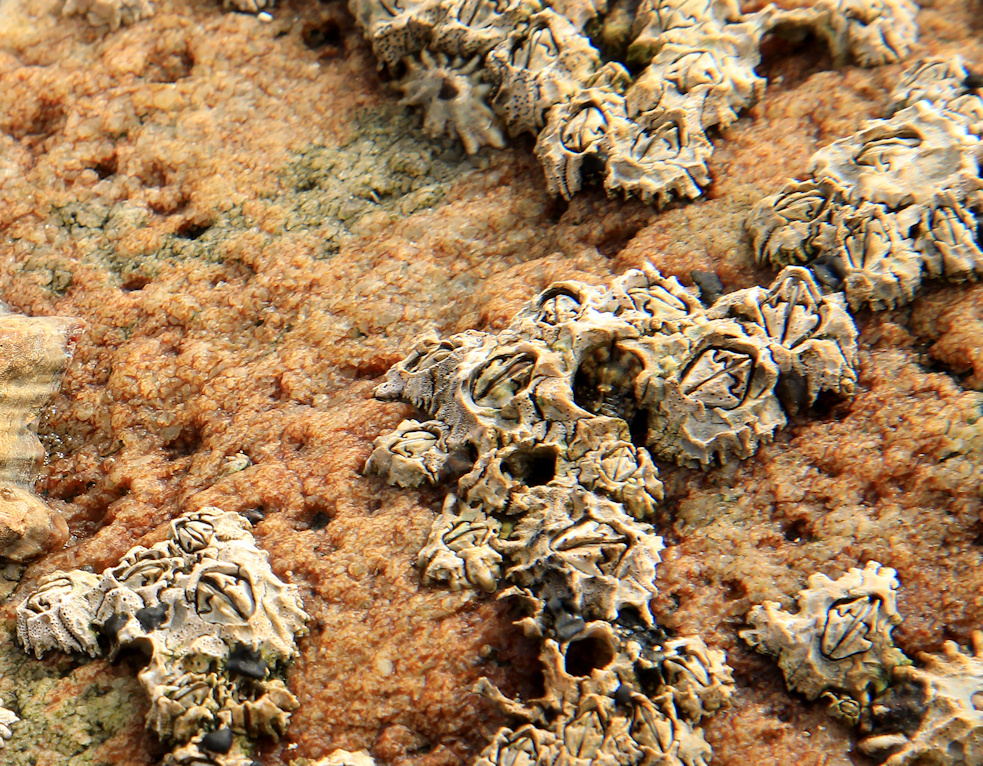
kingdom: Animalia
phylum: Arthropoda
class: Maxillopoda
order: Sessilia
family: Chthamalidae
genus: Chthamalus
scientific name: Chthamalus dentatus
